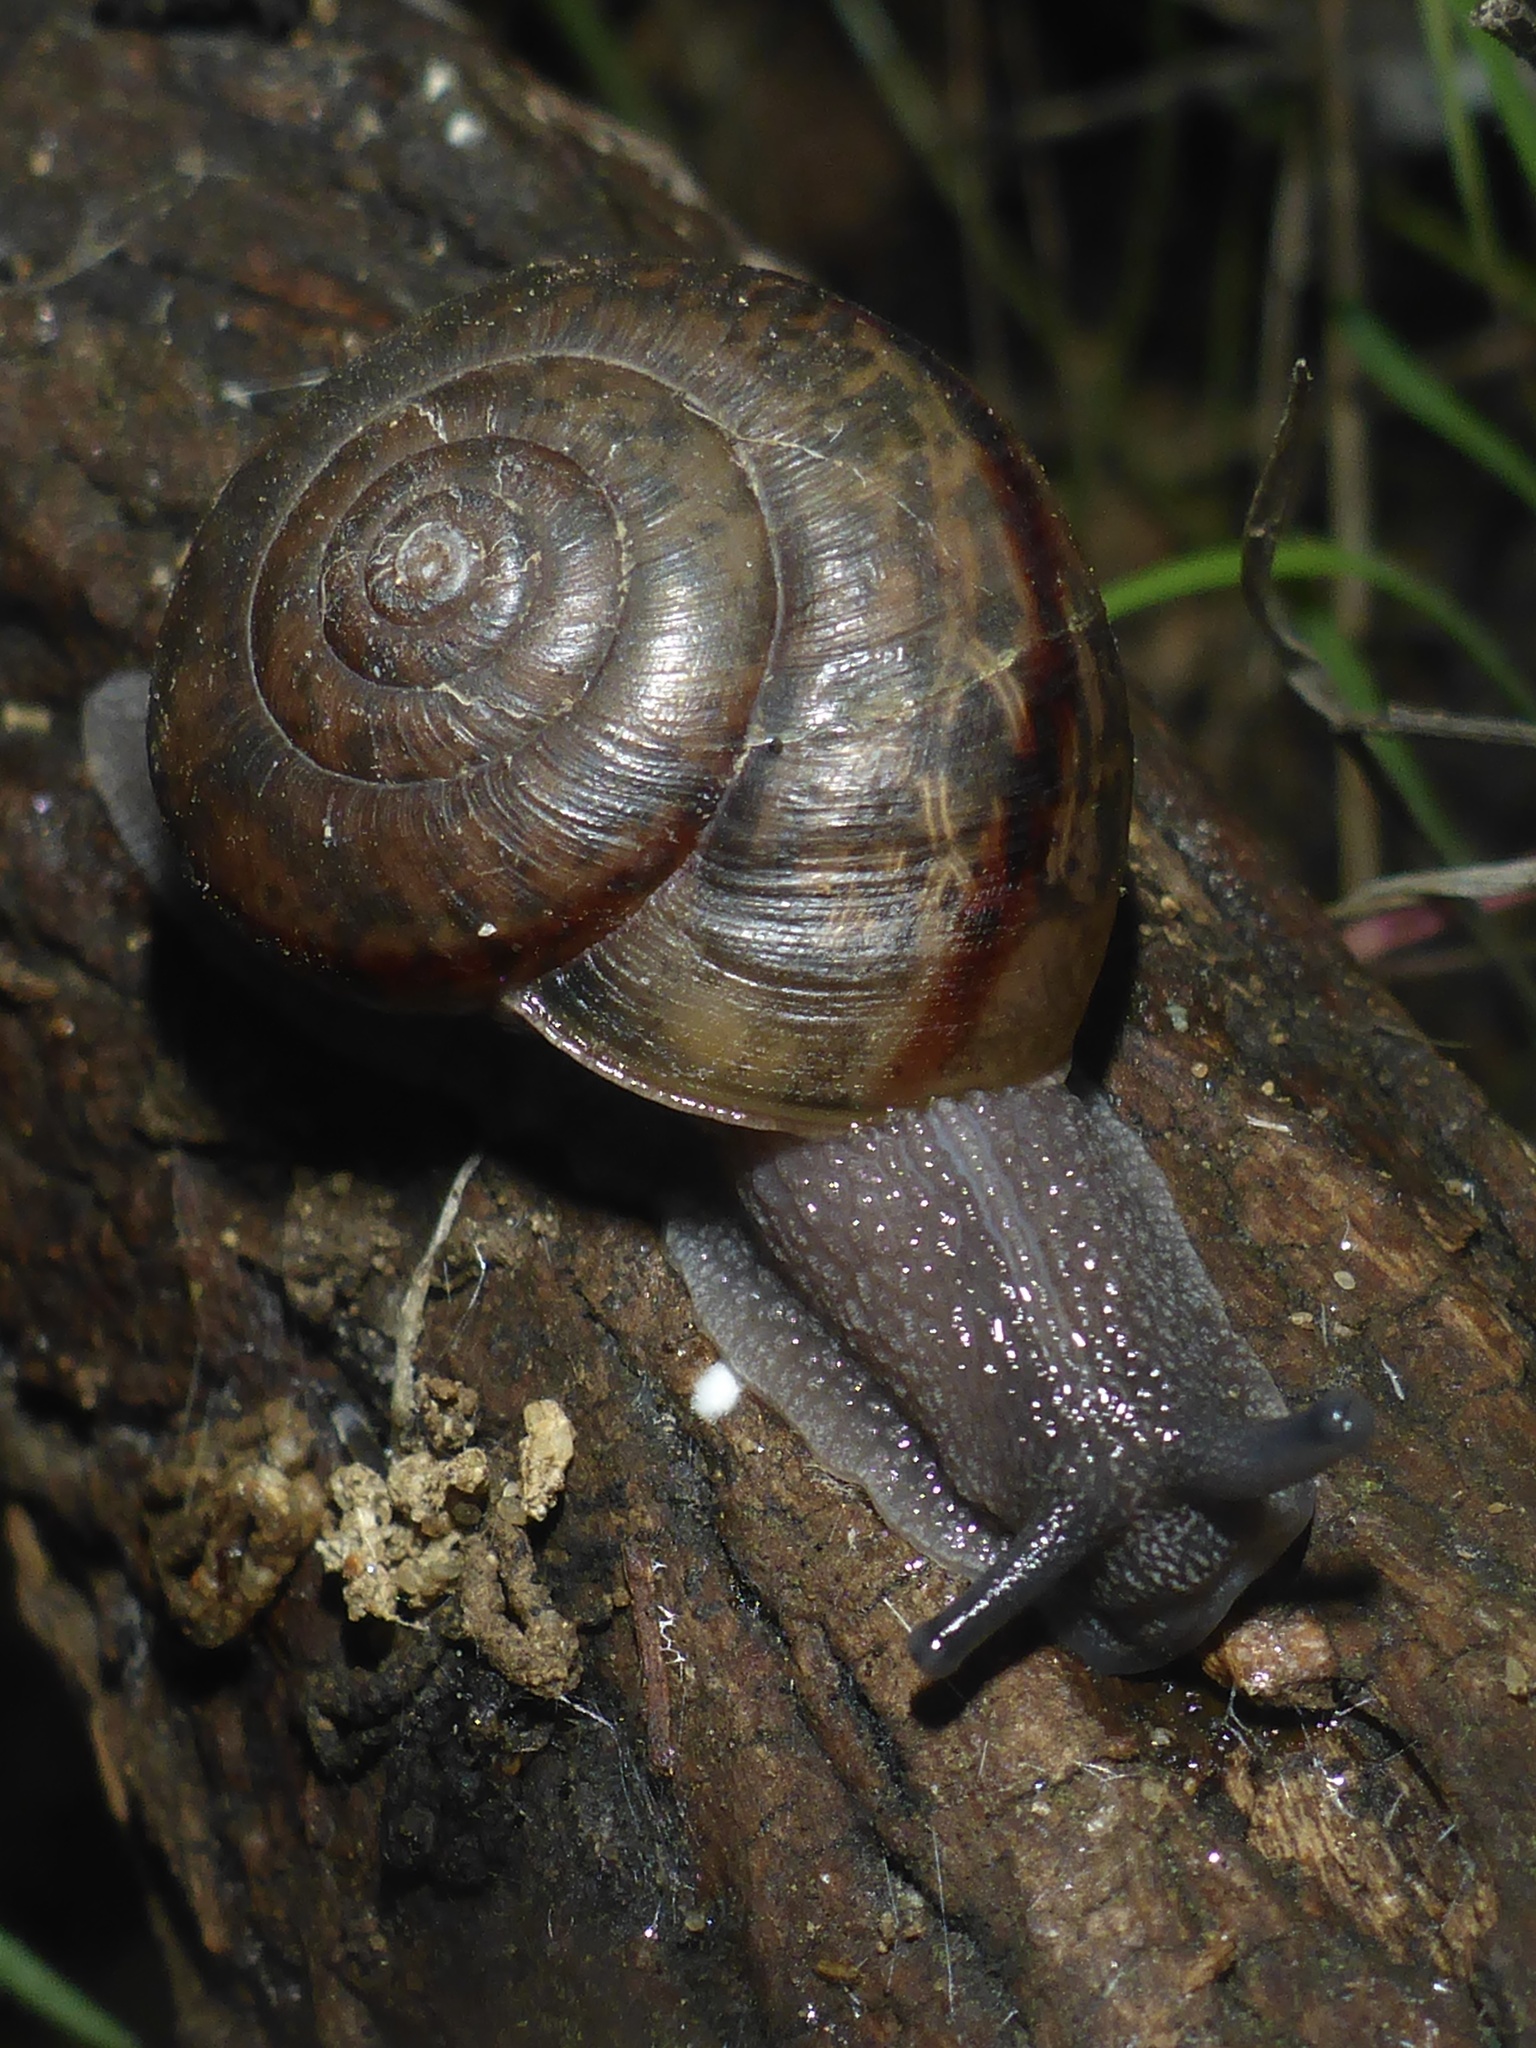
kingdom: Animalia
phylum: Mollusca
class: Gastropoda
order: Stylommatophora
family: Xanthonychidae
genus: Helminthoglypta
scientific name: Helminthoglypta phlyctaena
